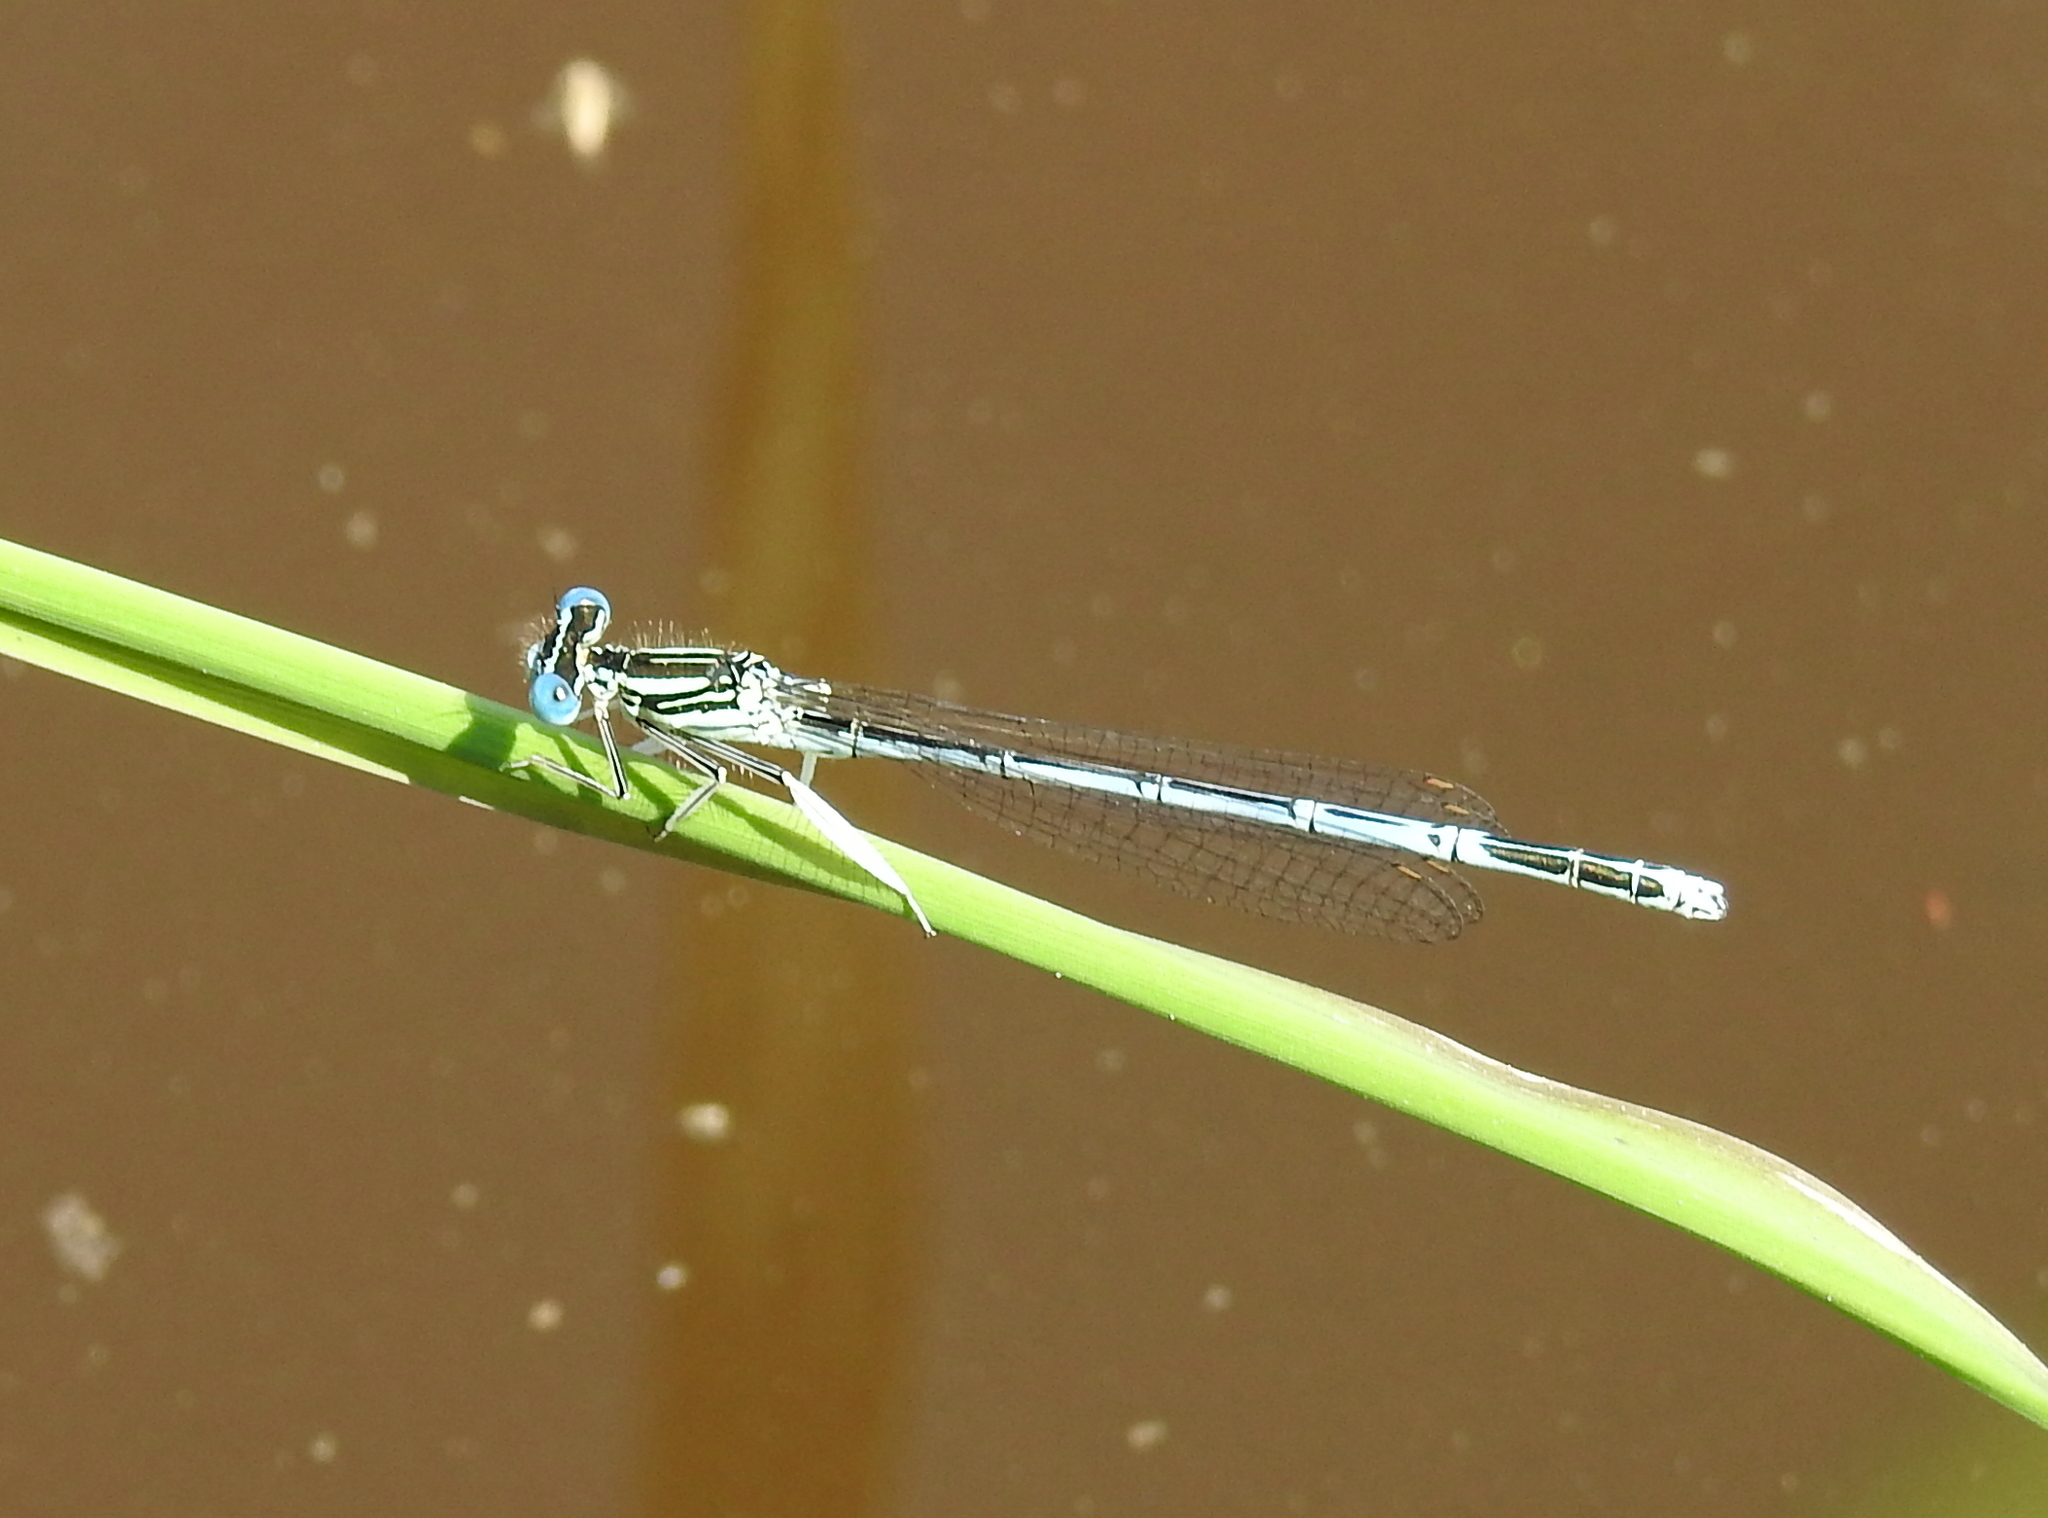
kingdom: Animalia
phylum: Arthropoda
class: Insecta
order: Odonata
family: Platycnemididae
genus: Platycnemis
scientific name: Platycnemis pennipes
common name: White-legged damselfly
